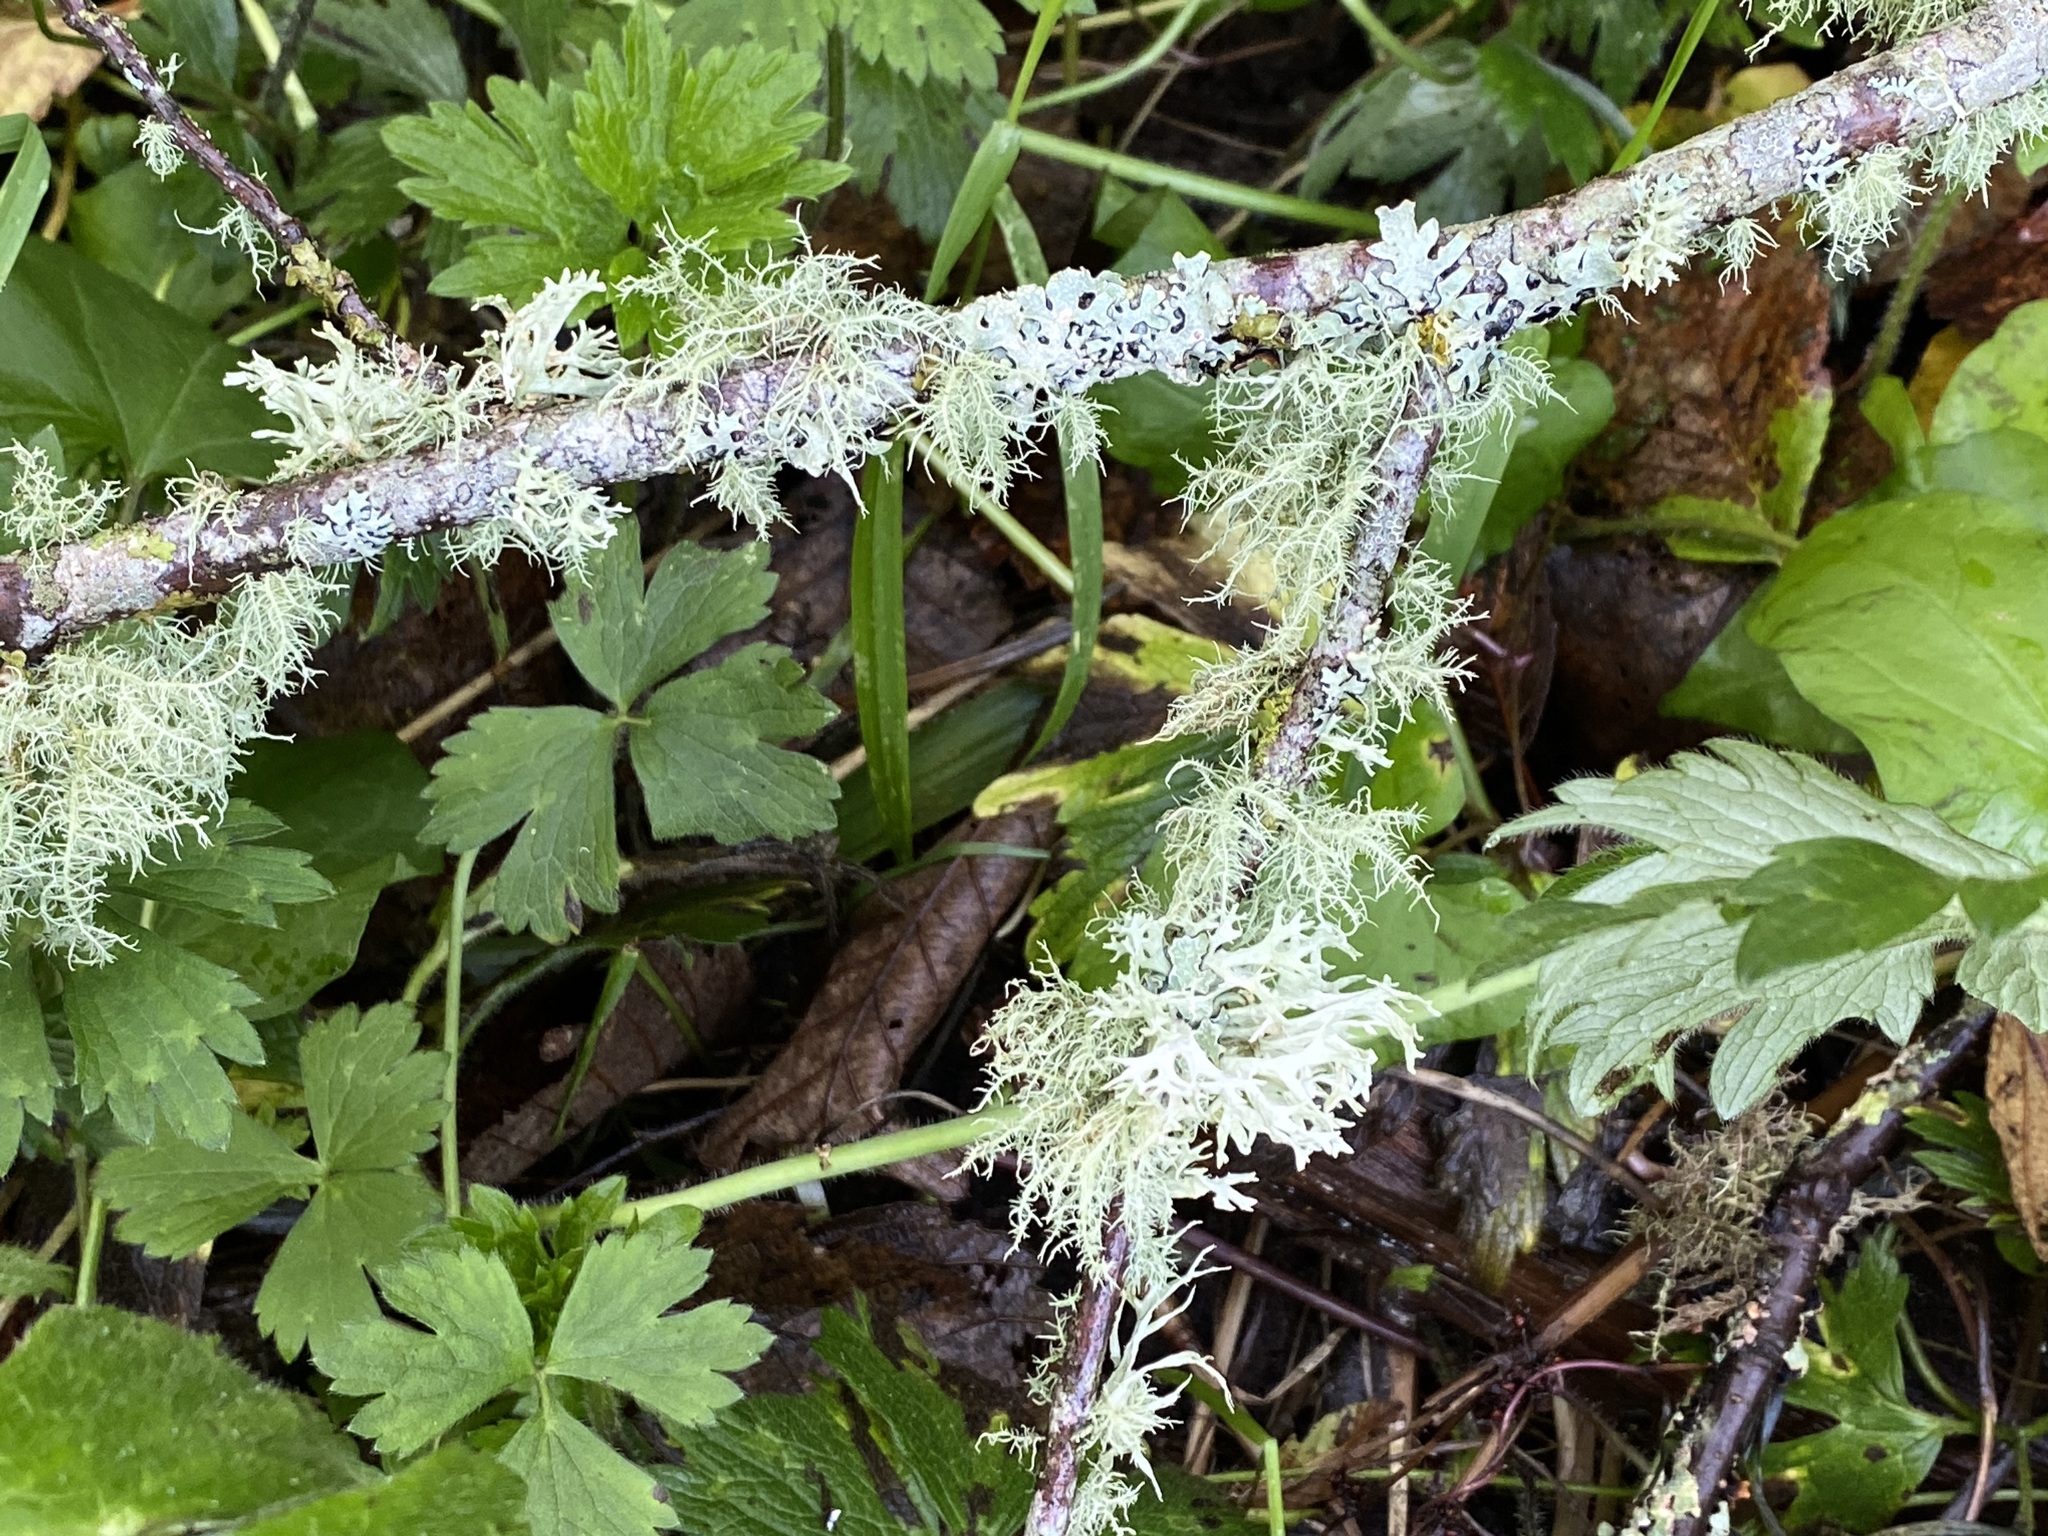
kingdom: Fungi
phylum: Ascomycota
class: Lecanoromycetes
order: Lecanorales
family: Parmeliaceae
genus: Evernia
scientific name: Evernia prunastri
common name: Oak moss
